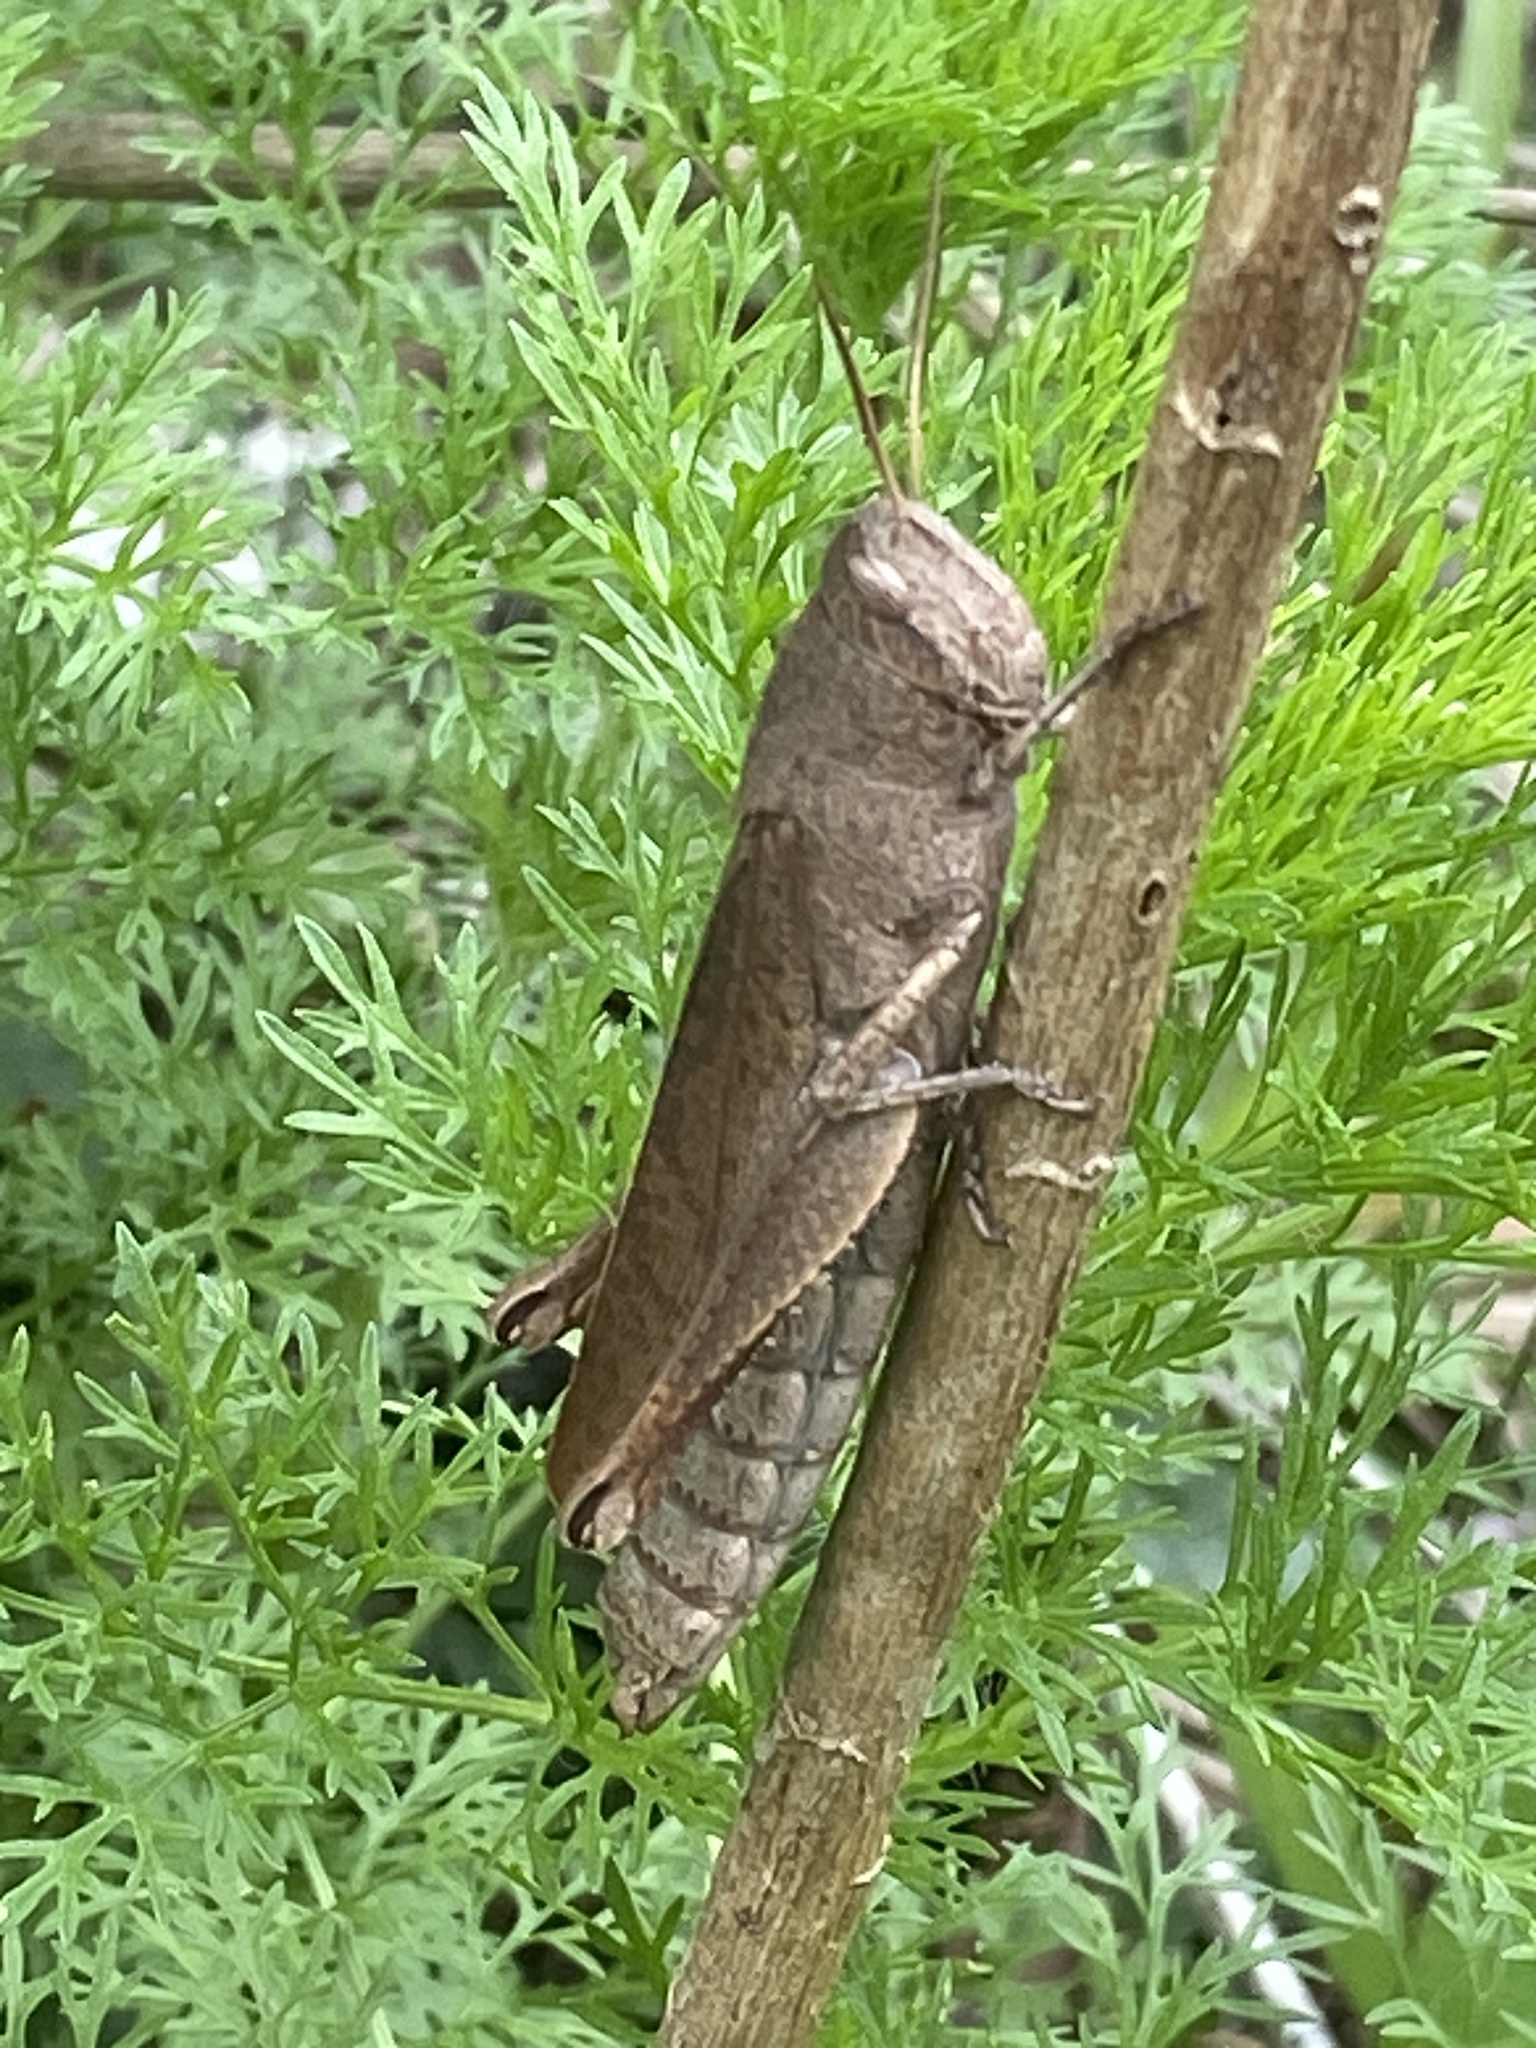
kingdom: Animalia
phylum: Arthropoda
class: Insecta
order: Orthoptera
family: Acrididae
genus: Schistocerca
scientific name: Schistocerca damnifica
